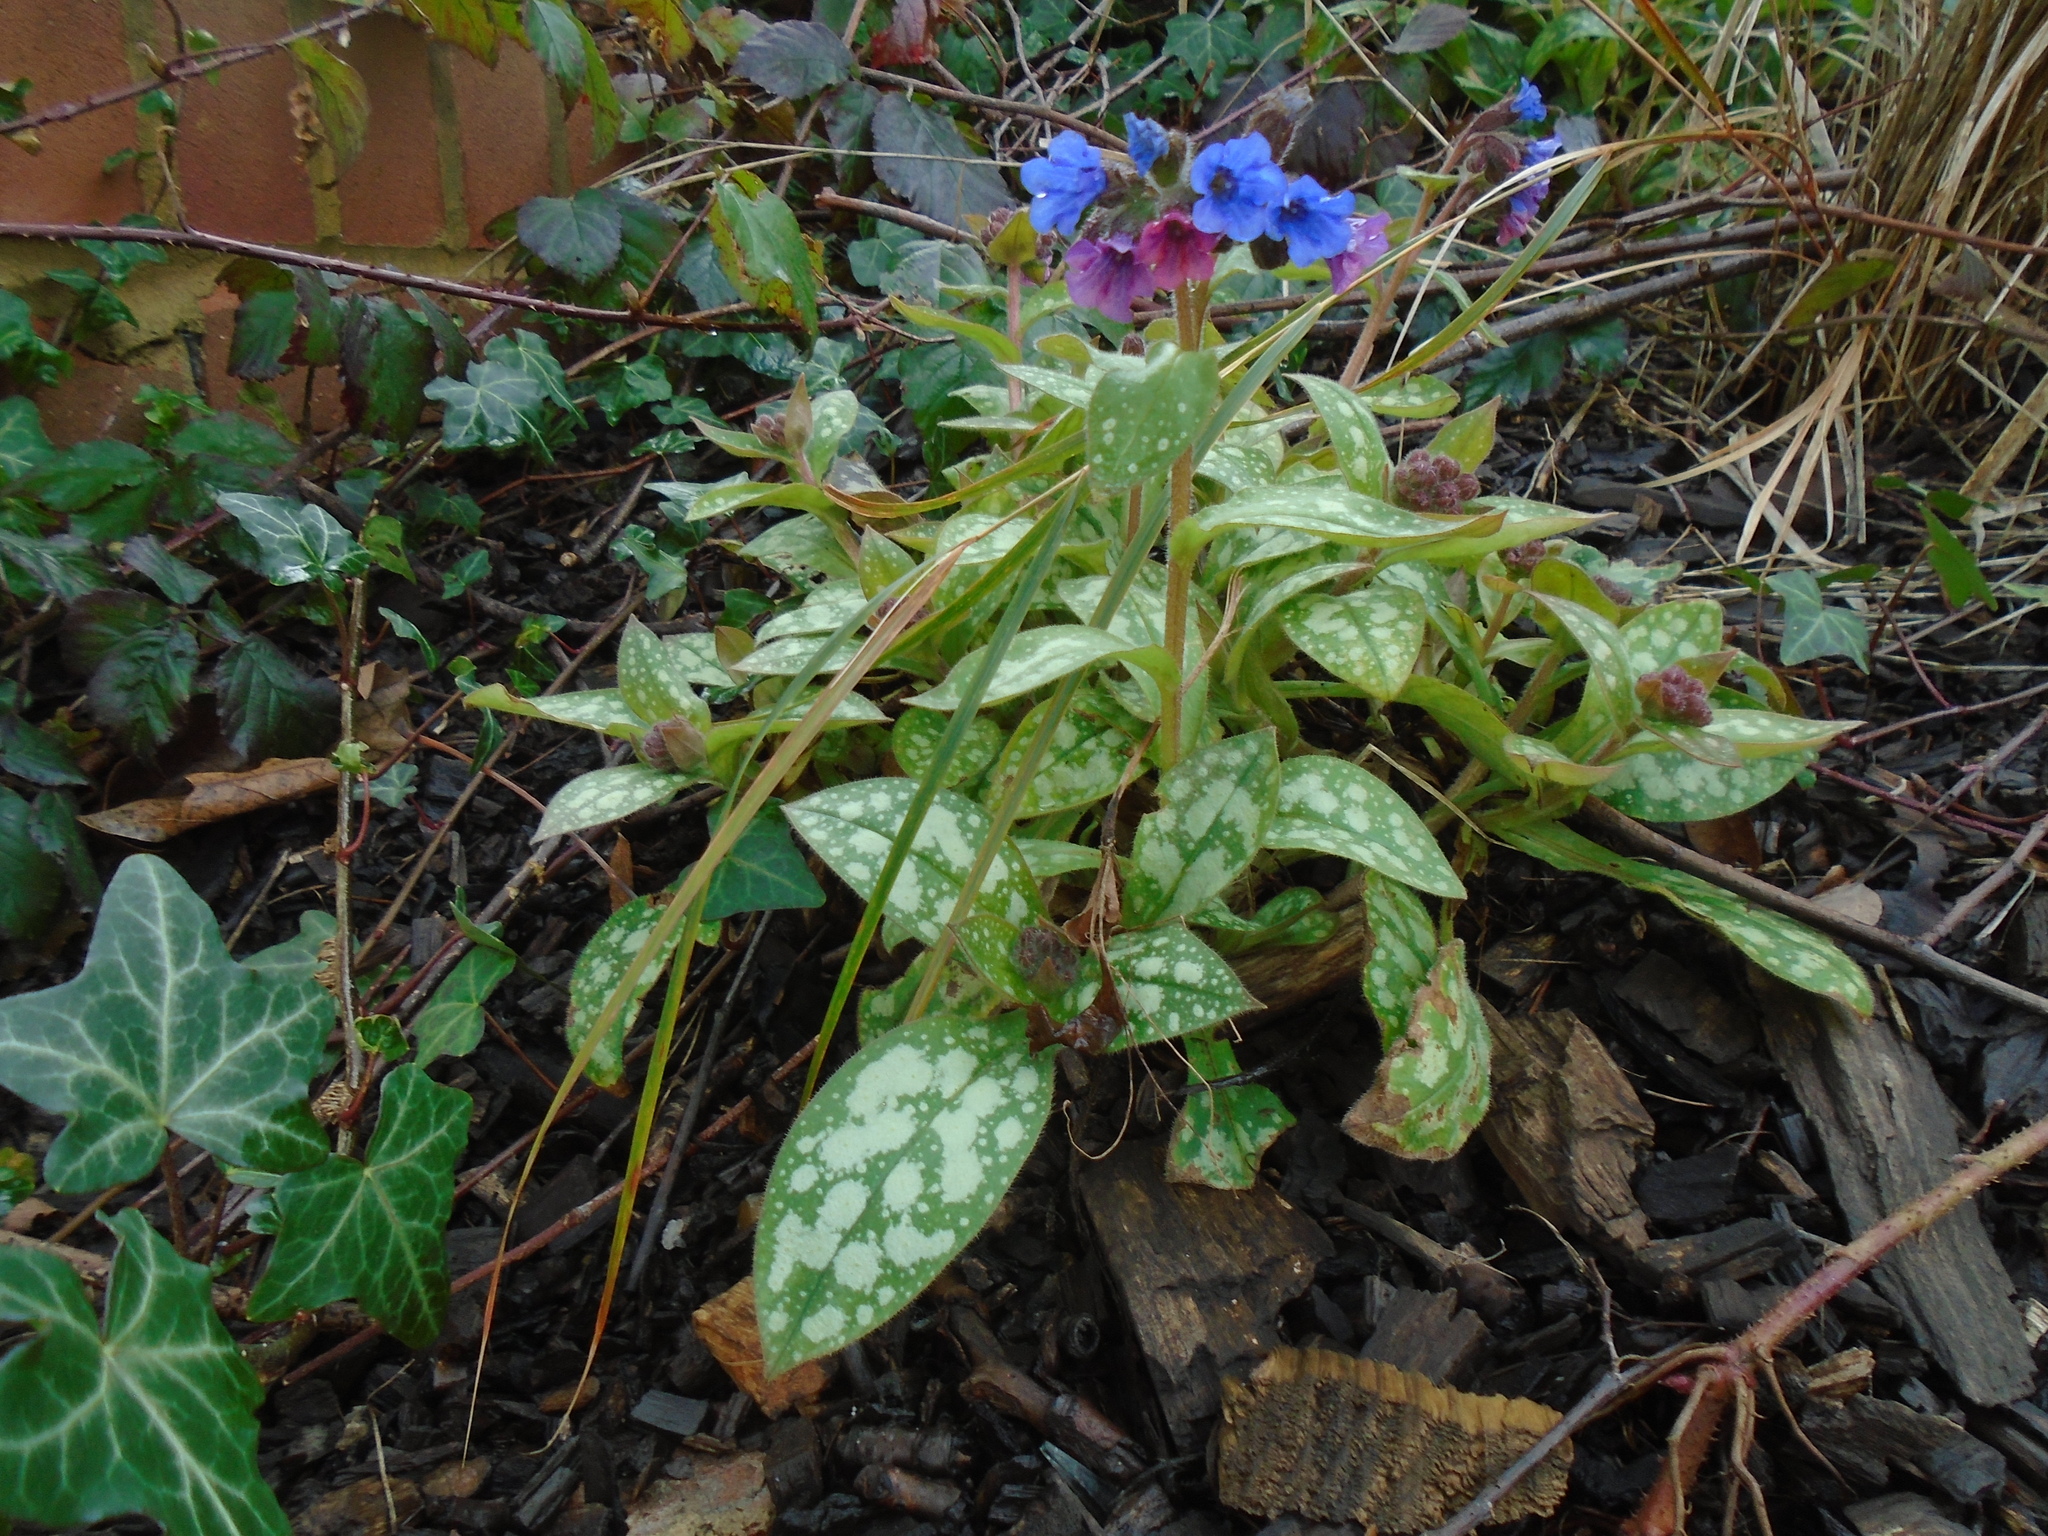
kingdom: Plantae
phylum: Tracheophyta
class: Magnoliopsida
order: Boraginales
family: Boraginaceae
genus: Pulmonaria
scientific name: Pulmonaria officinalis
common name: Lungwort
